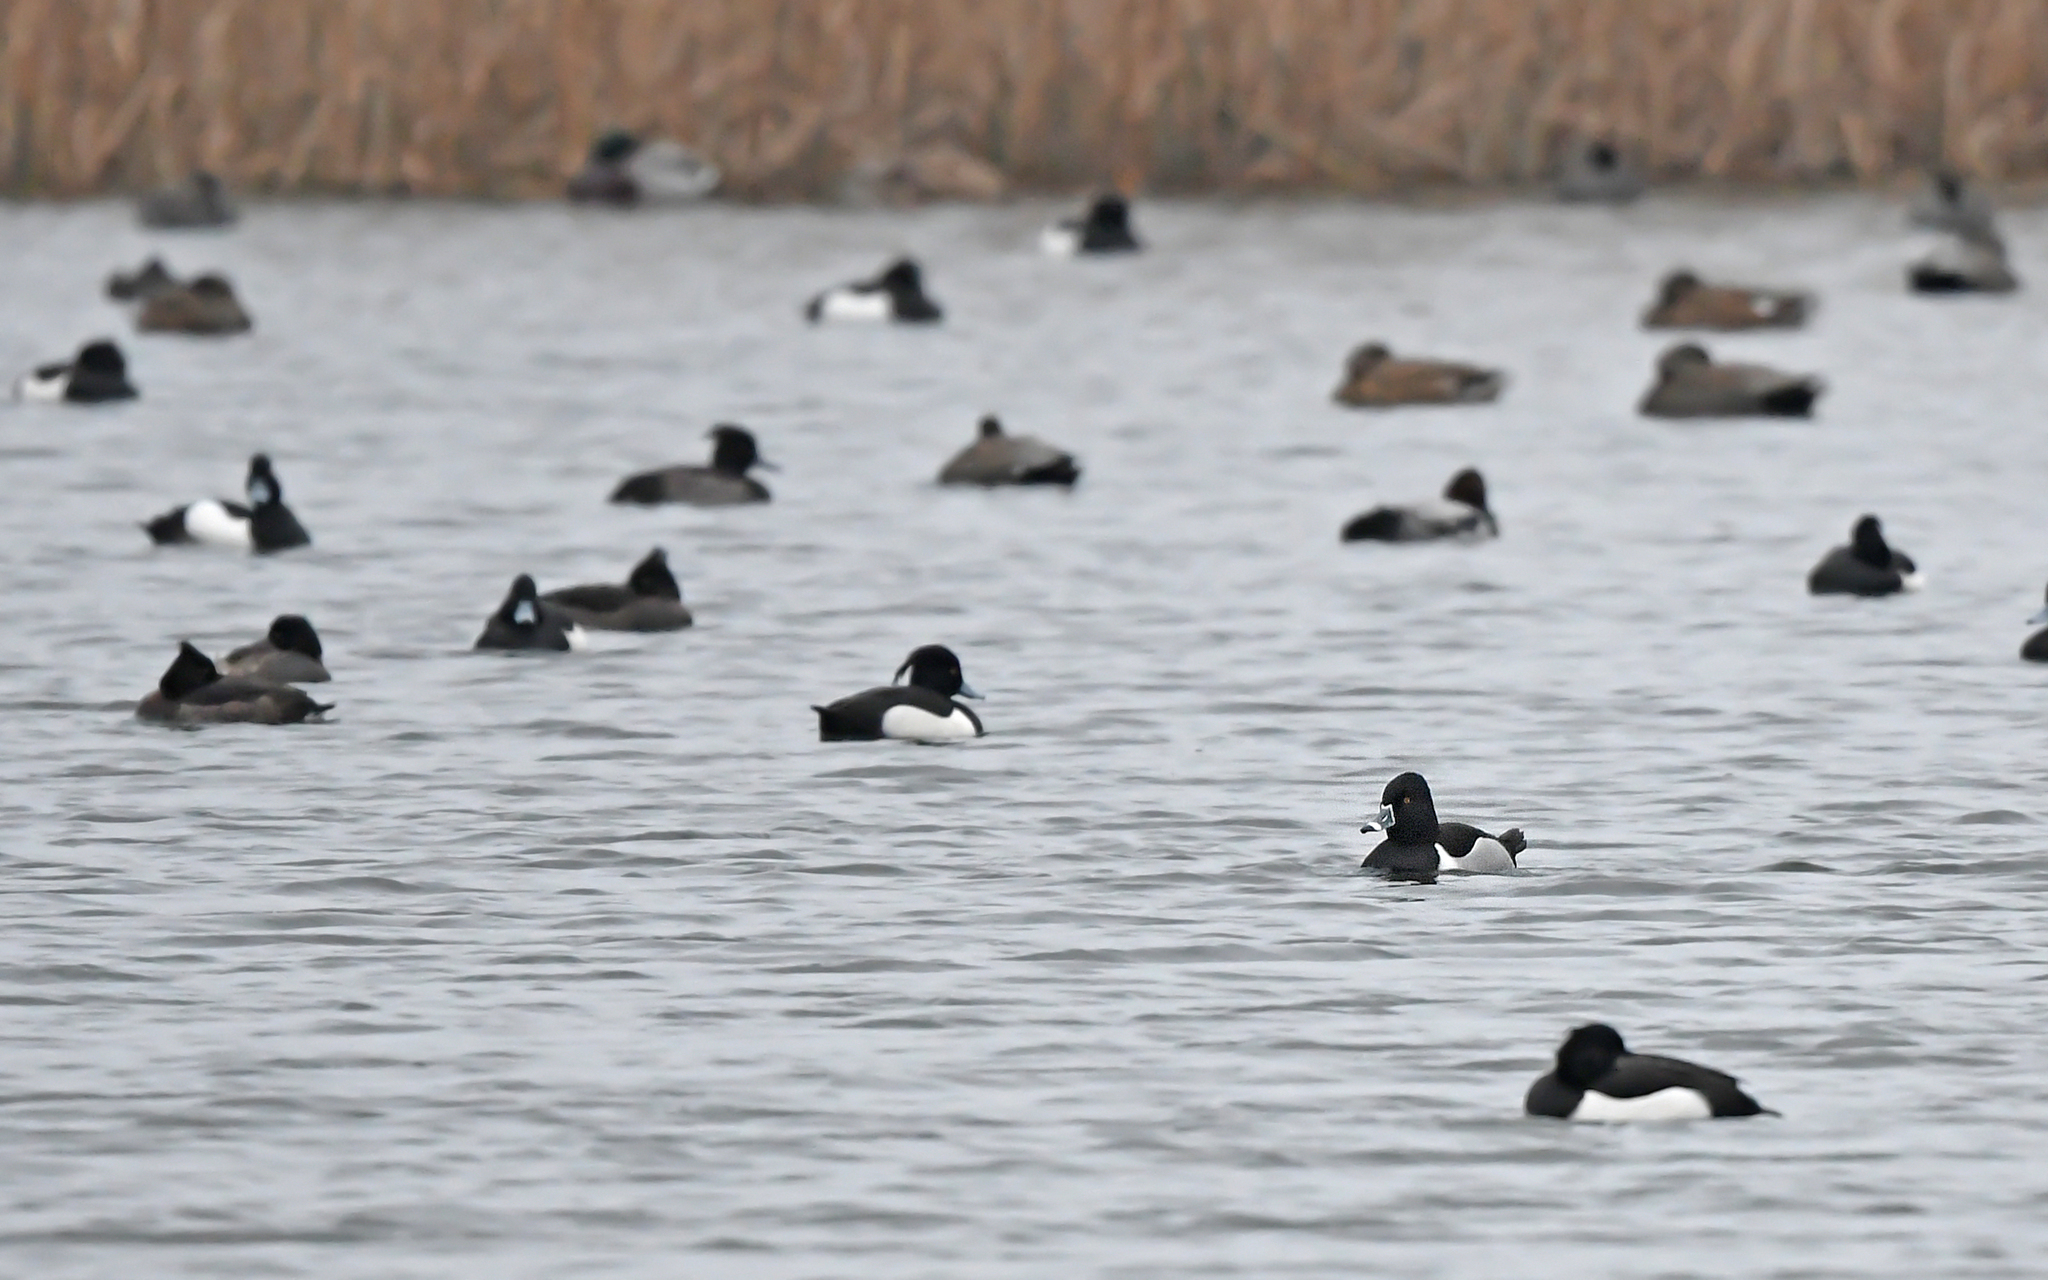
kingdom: Animalia
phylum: Chordata
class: Aves
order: Anseriformes
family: Anatidae
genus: Aythya
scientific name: Aythya collaris
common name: Ring-necked duck
